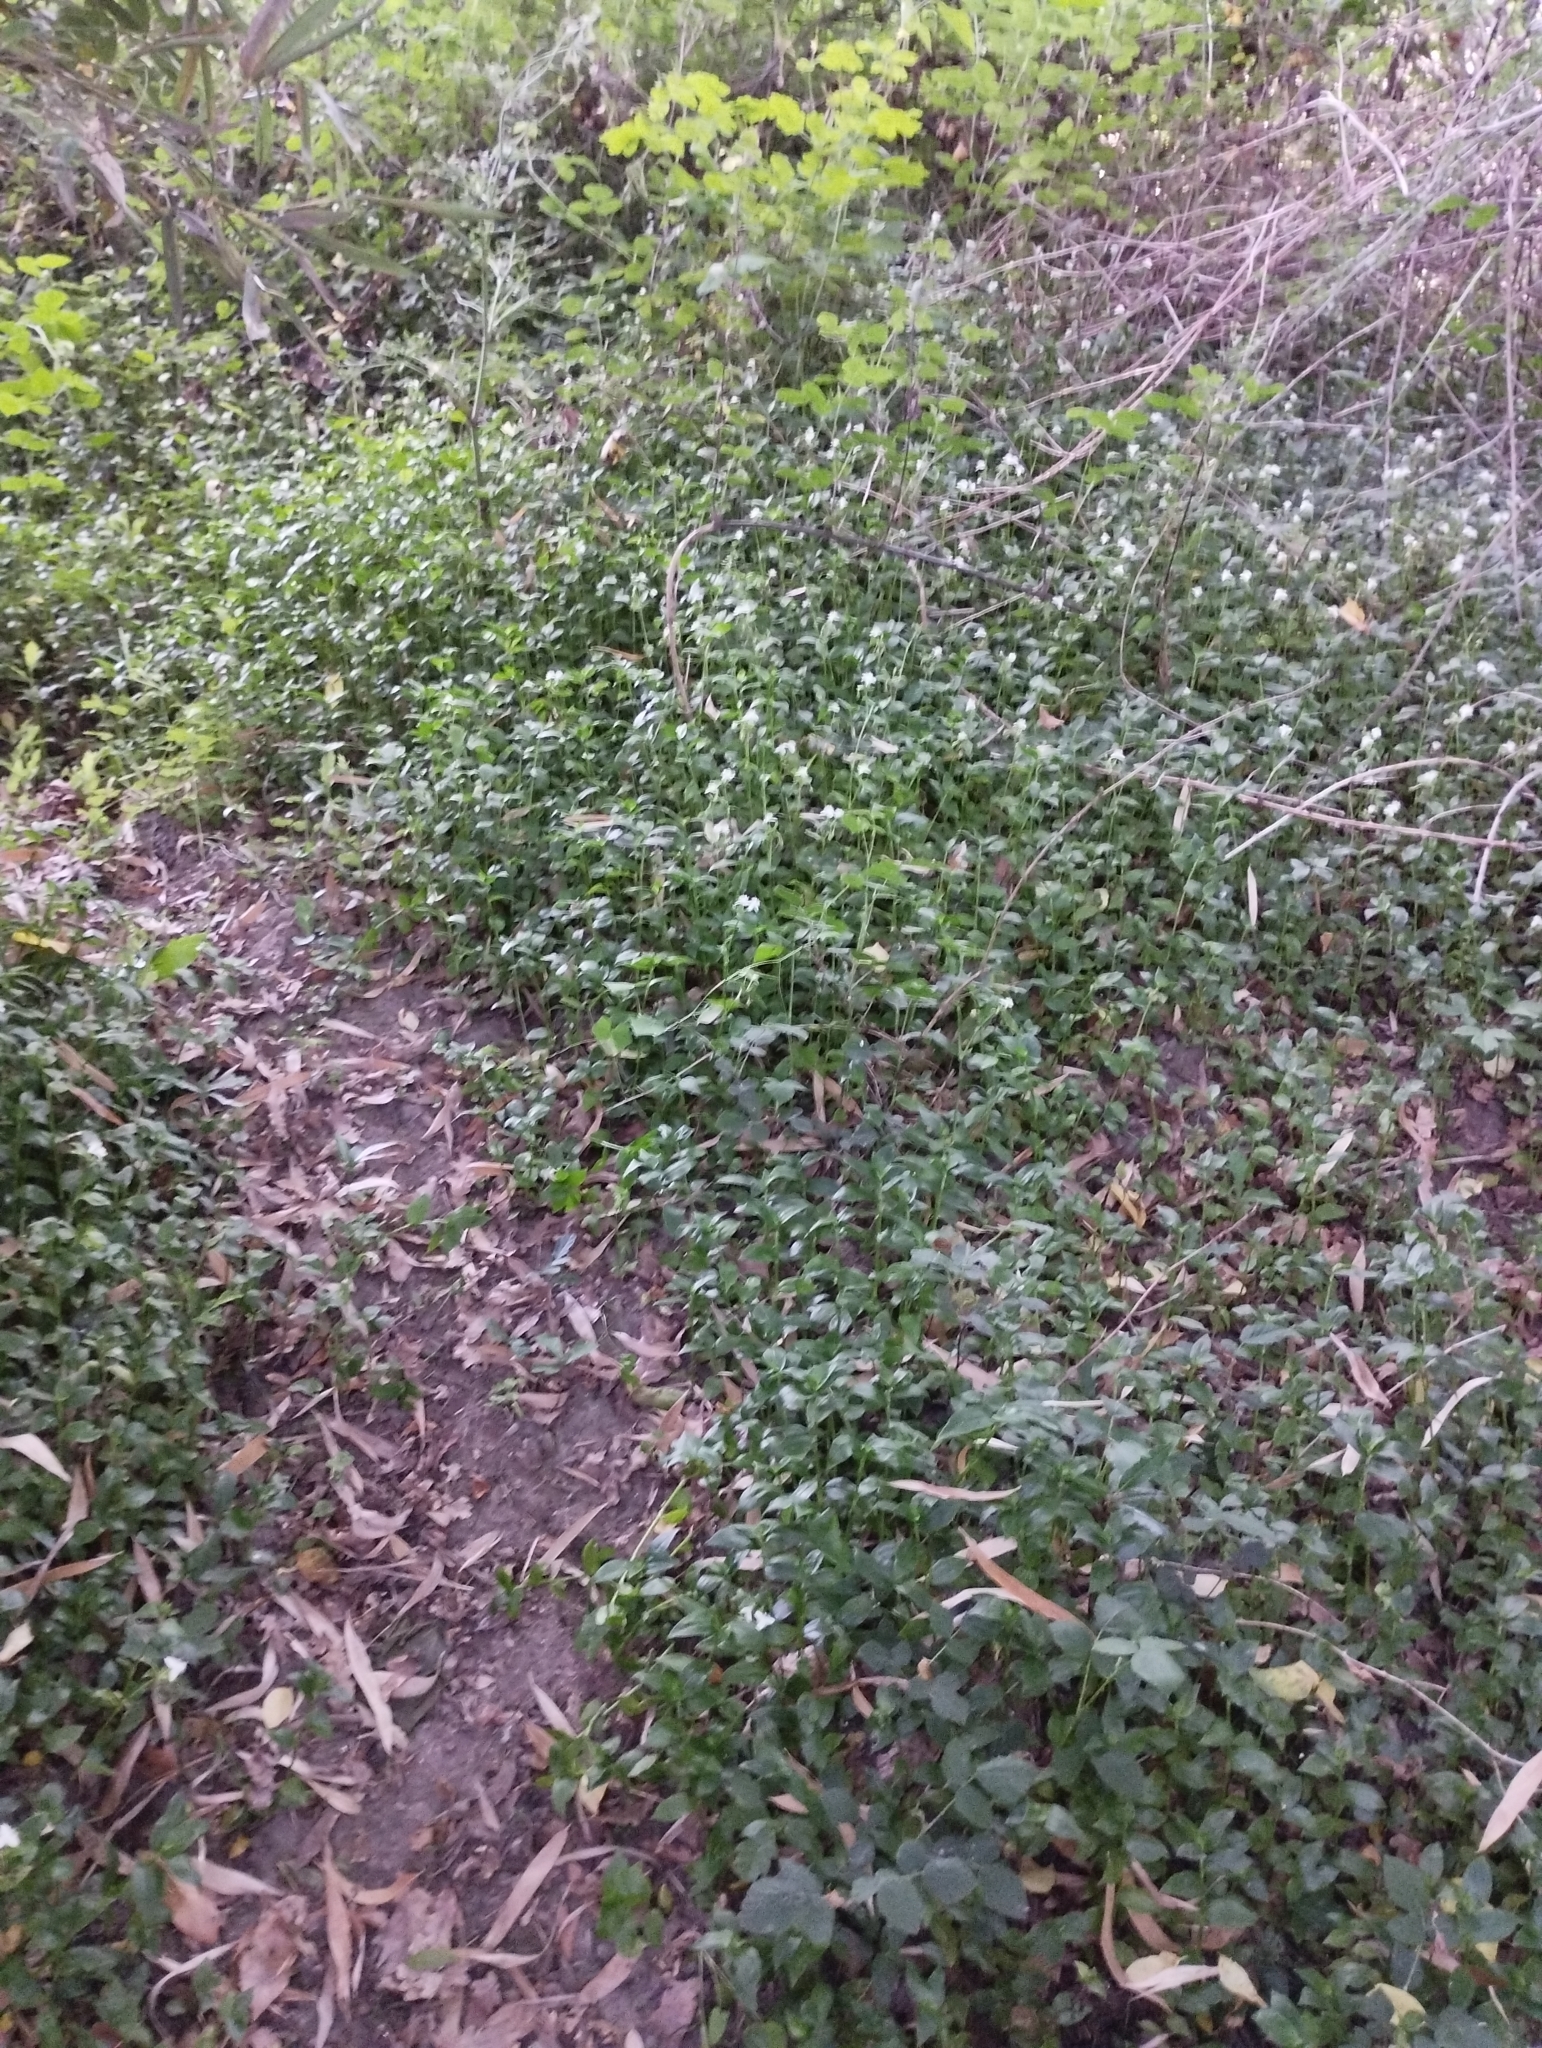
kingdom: Plantae
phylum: Tracheophyta
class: Liliopsida
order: Commelinales
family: Commelinaceae
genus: Tradescantia
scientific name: Tradescantia fluminensis
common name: Wandering-jew
